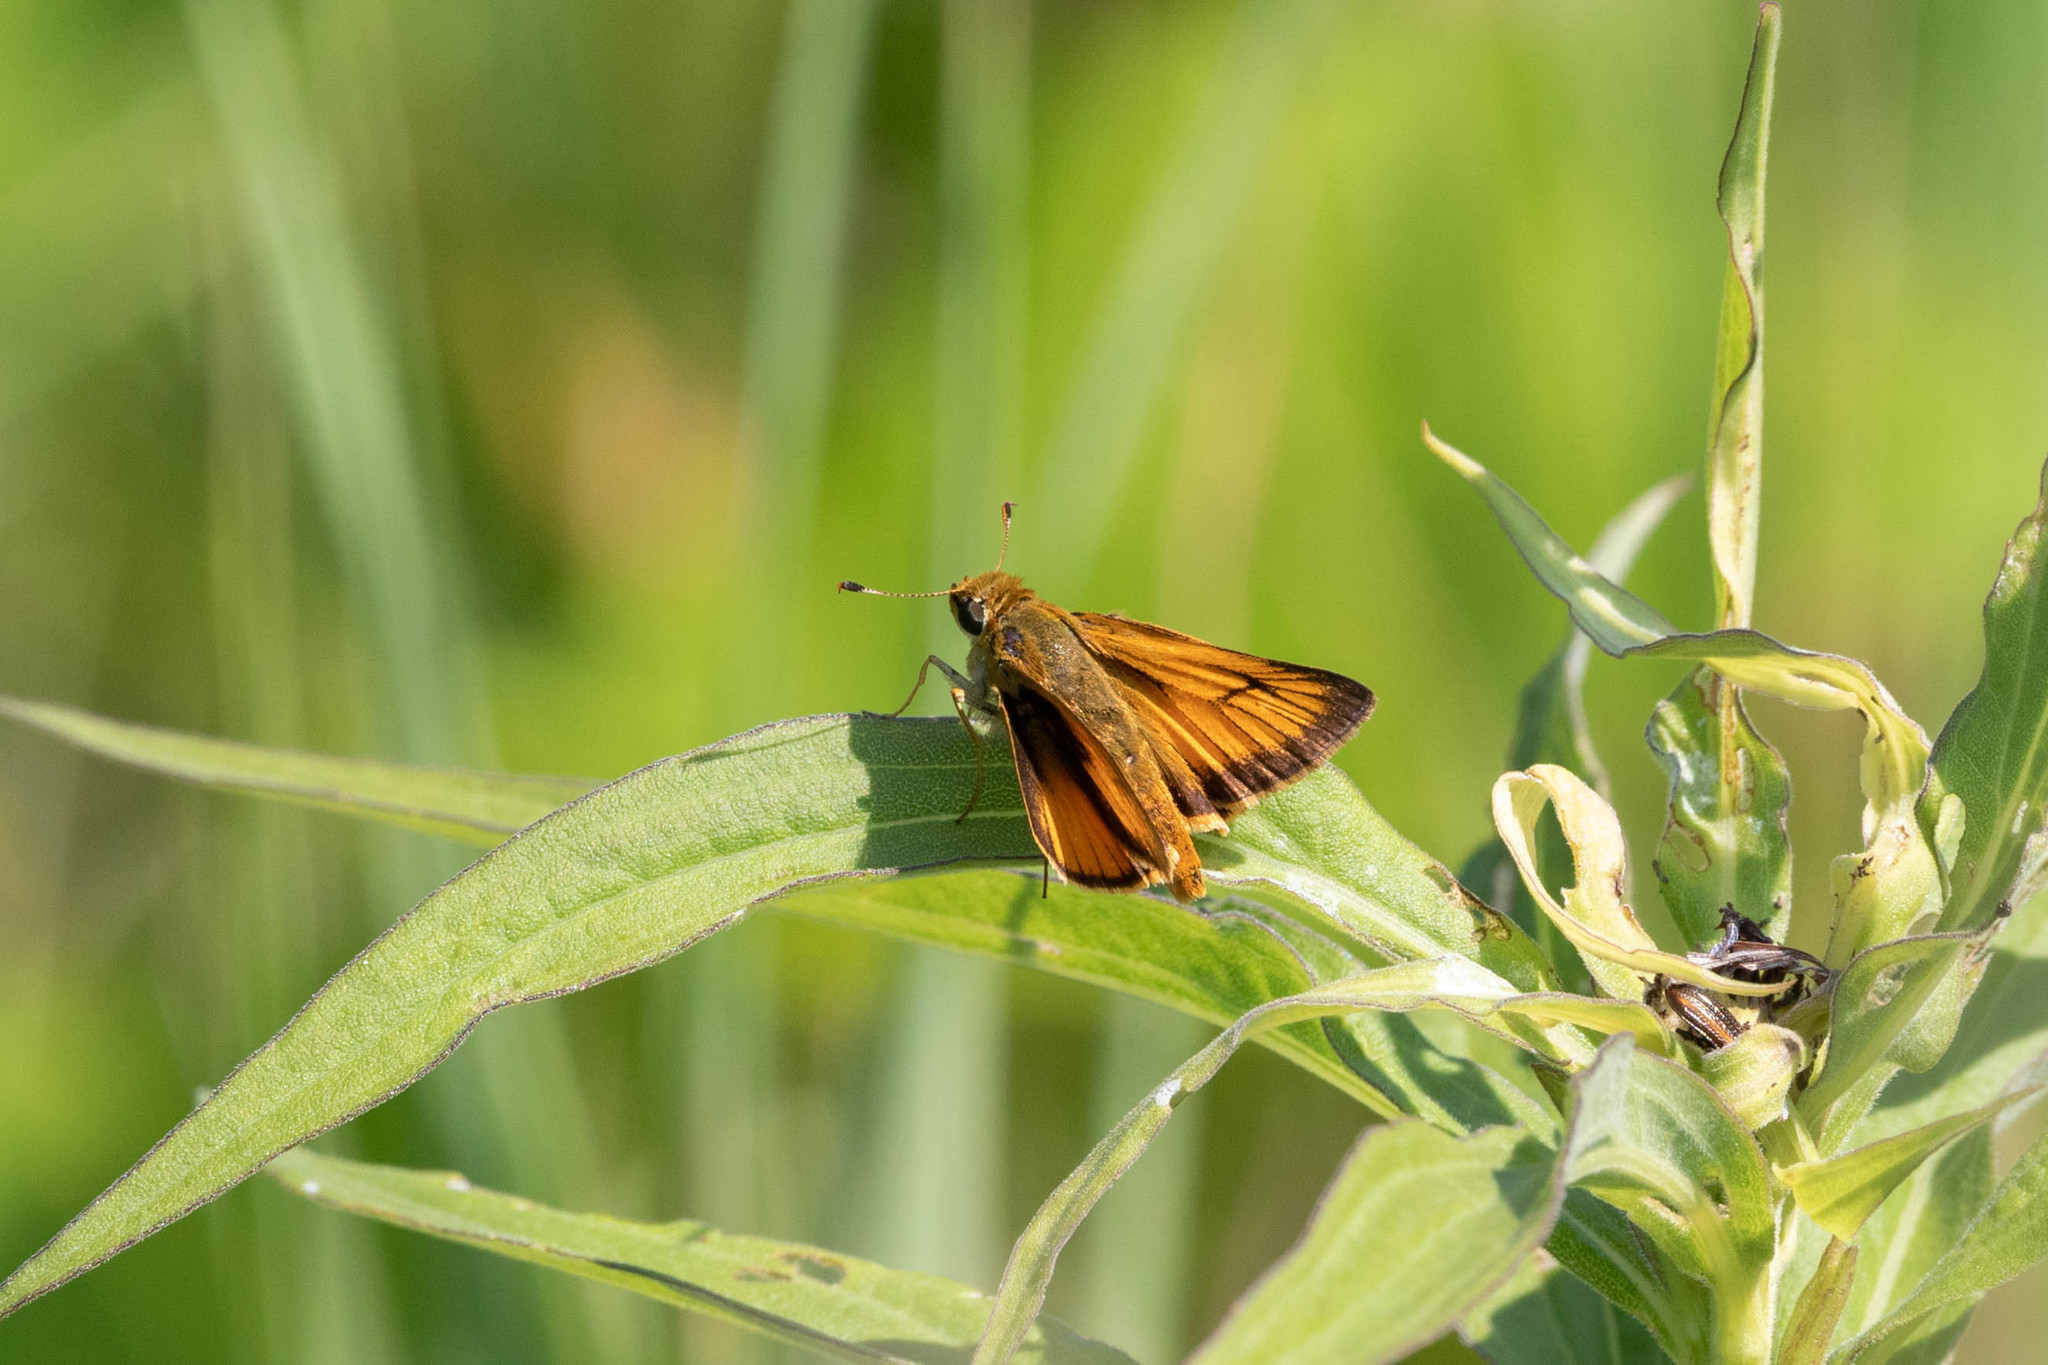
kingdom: Animalia
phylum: Arthropoda
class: Insecta
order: Lepidoptera
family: Hesperiidae
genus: Atrytone
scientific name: Atrytone delaware
